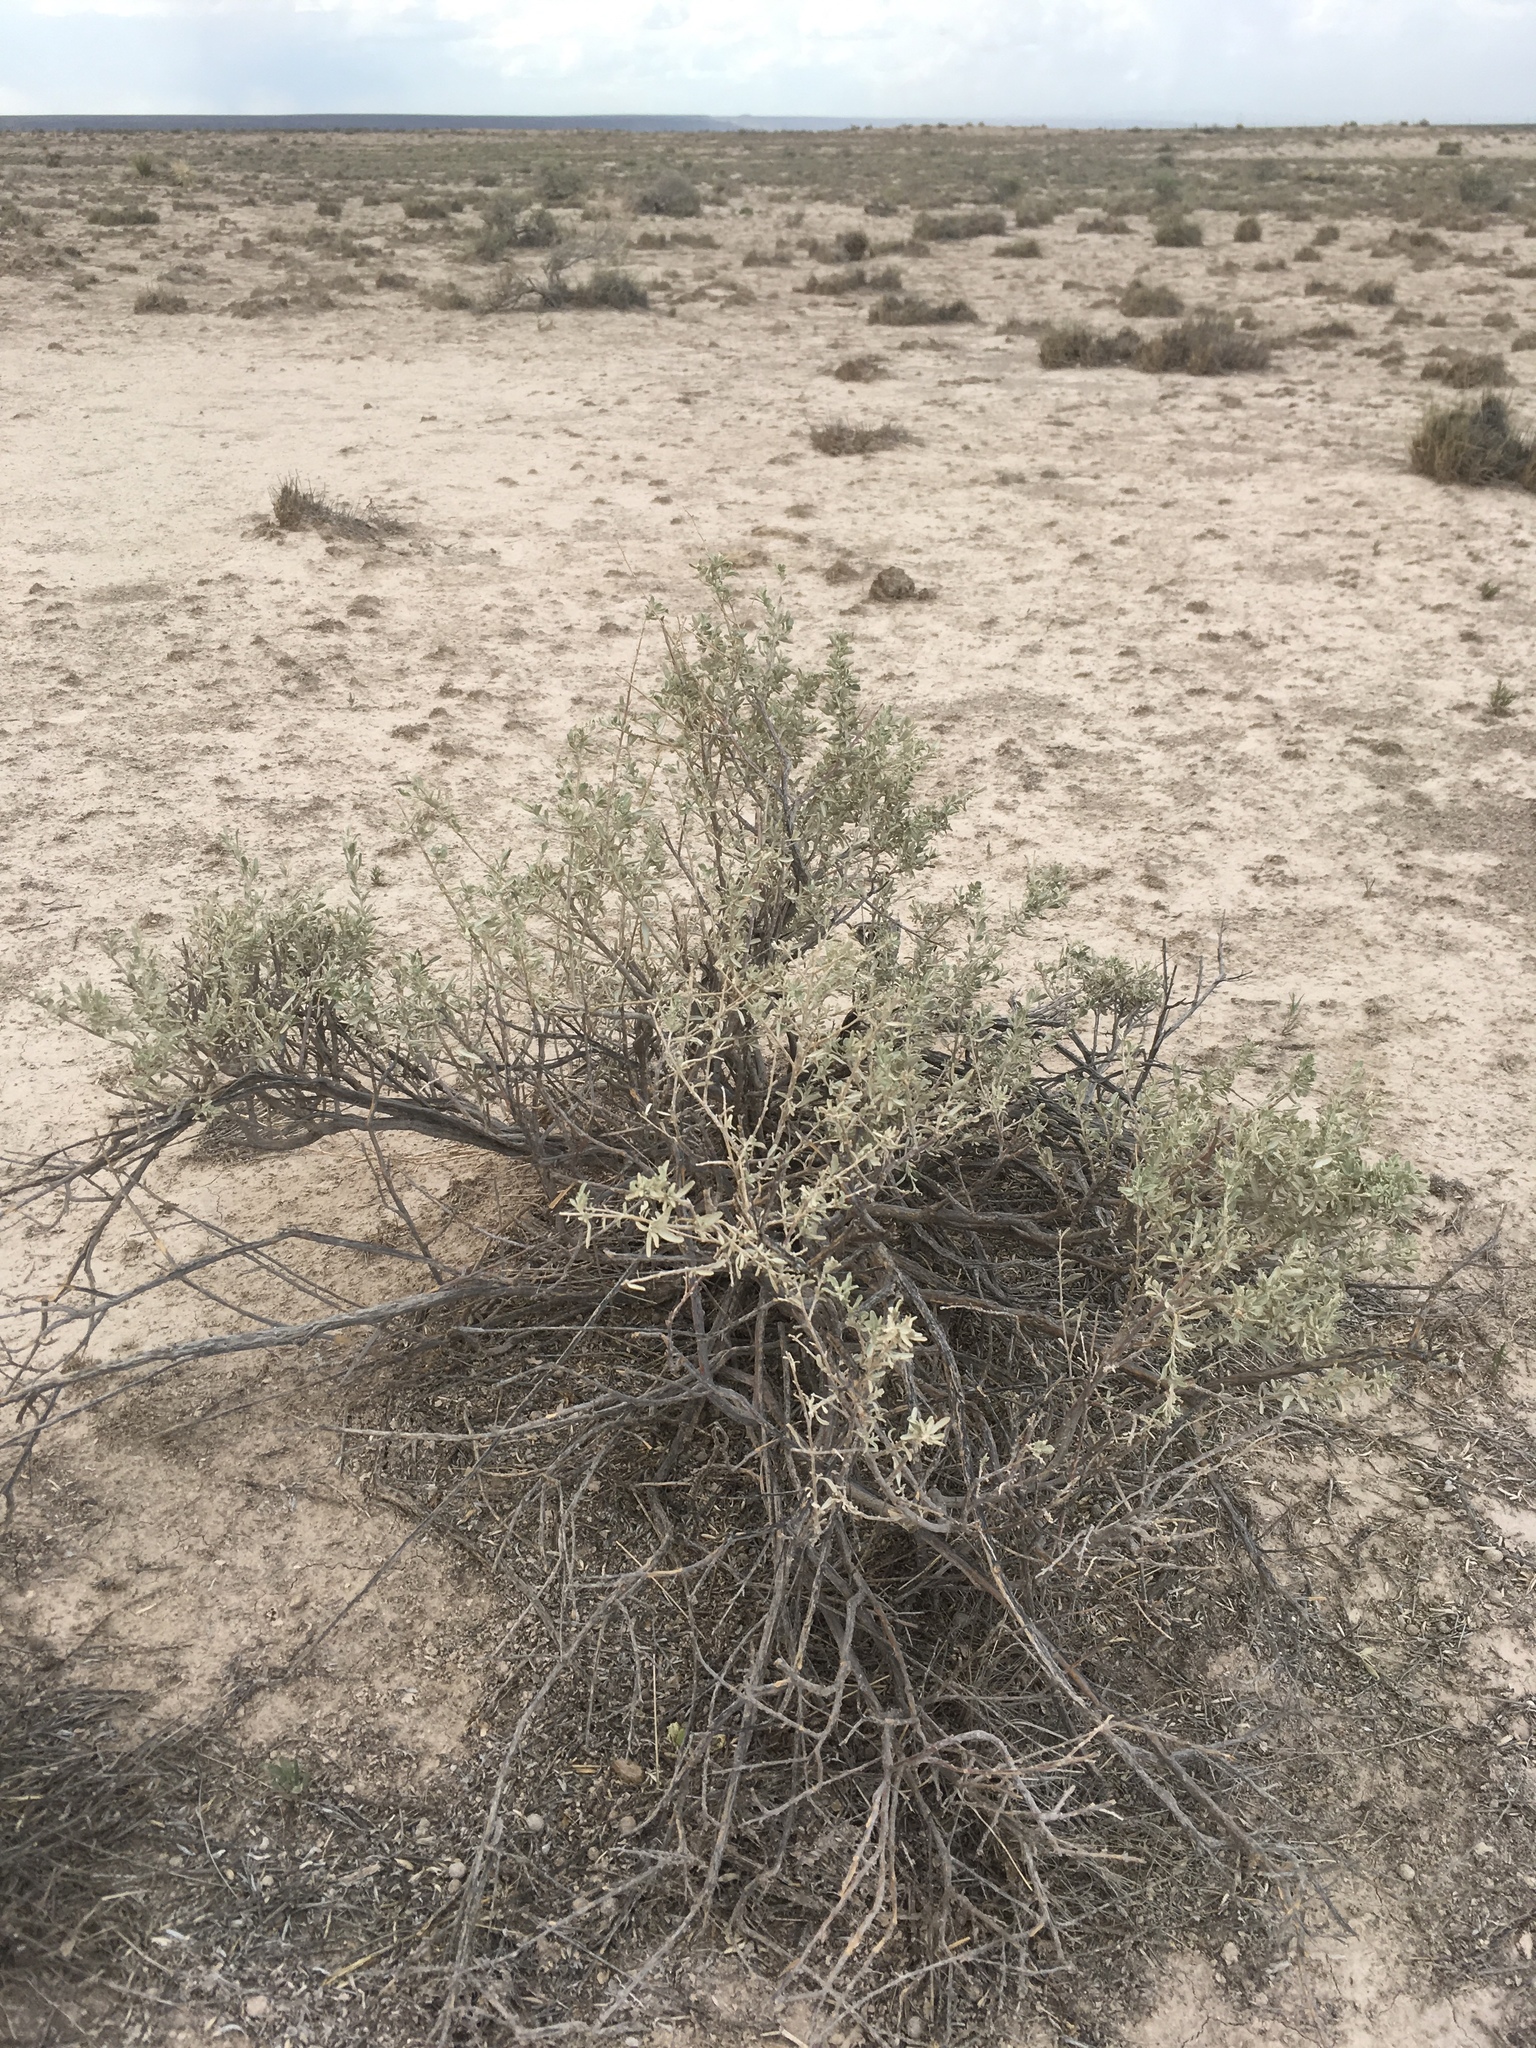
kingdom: Plantae
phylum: Tracheophyta
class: Magnoliopsida
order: Caryophyllales
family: Amaranthaceae
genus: Atriplex
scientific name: Atriplex canescens
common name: Four-wing saltbush
